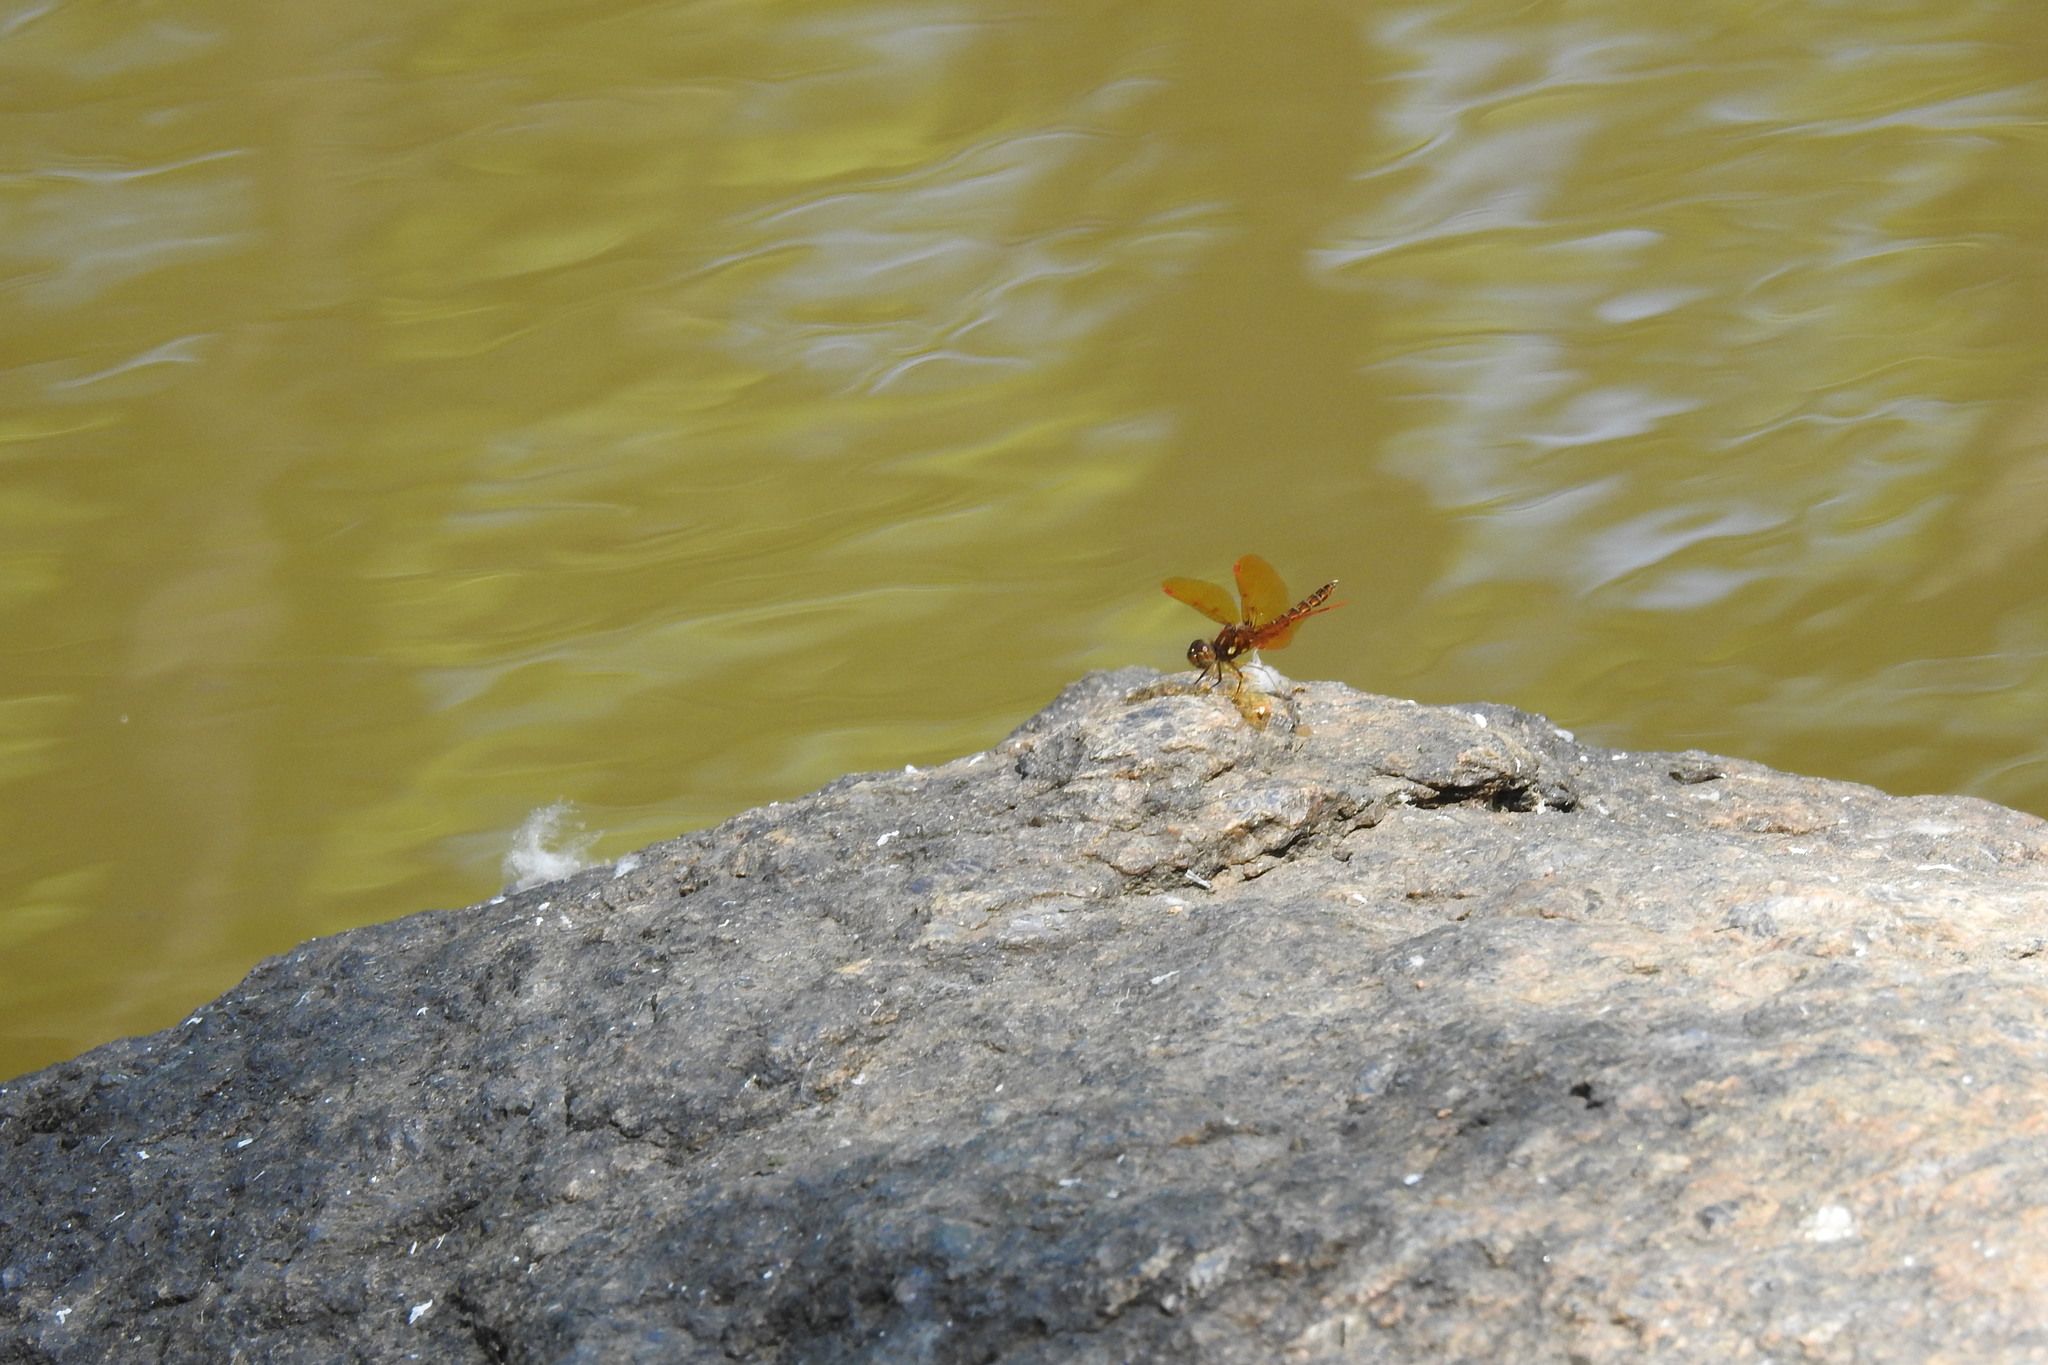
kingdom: Animalia
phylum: Arthropoda
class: Insecta
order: Odonata
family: Libellulidae
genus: Perithemis
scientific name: Perithemis tenera
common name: Eastern amberwing
